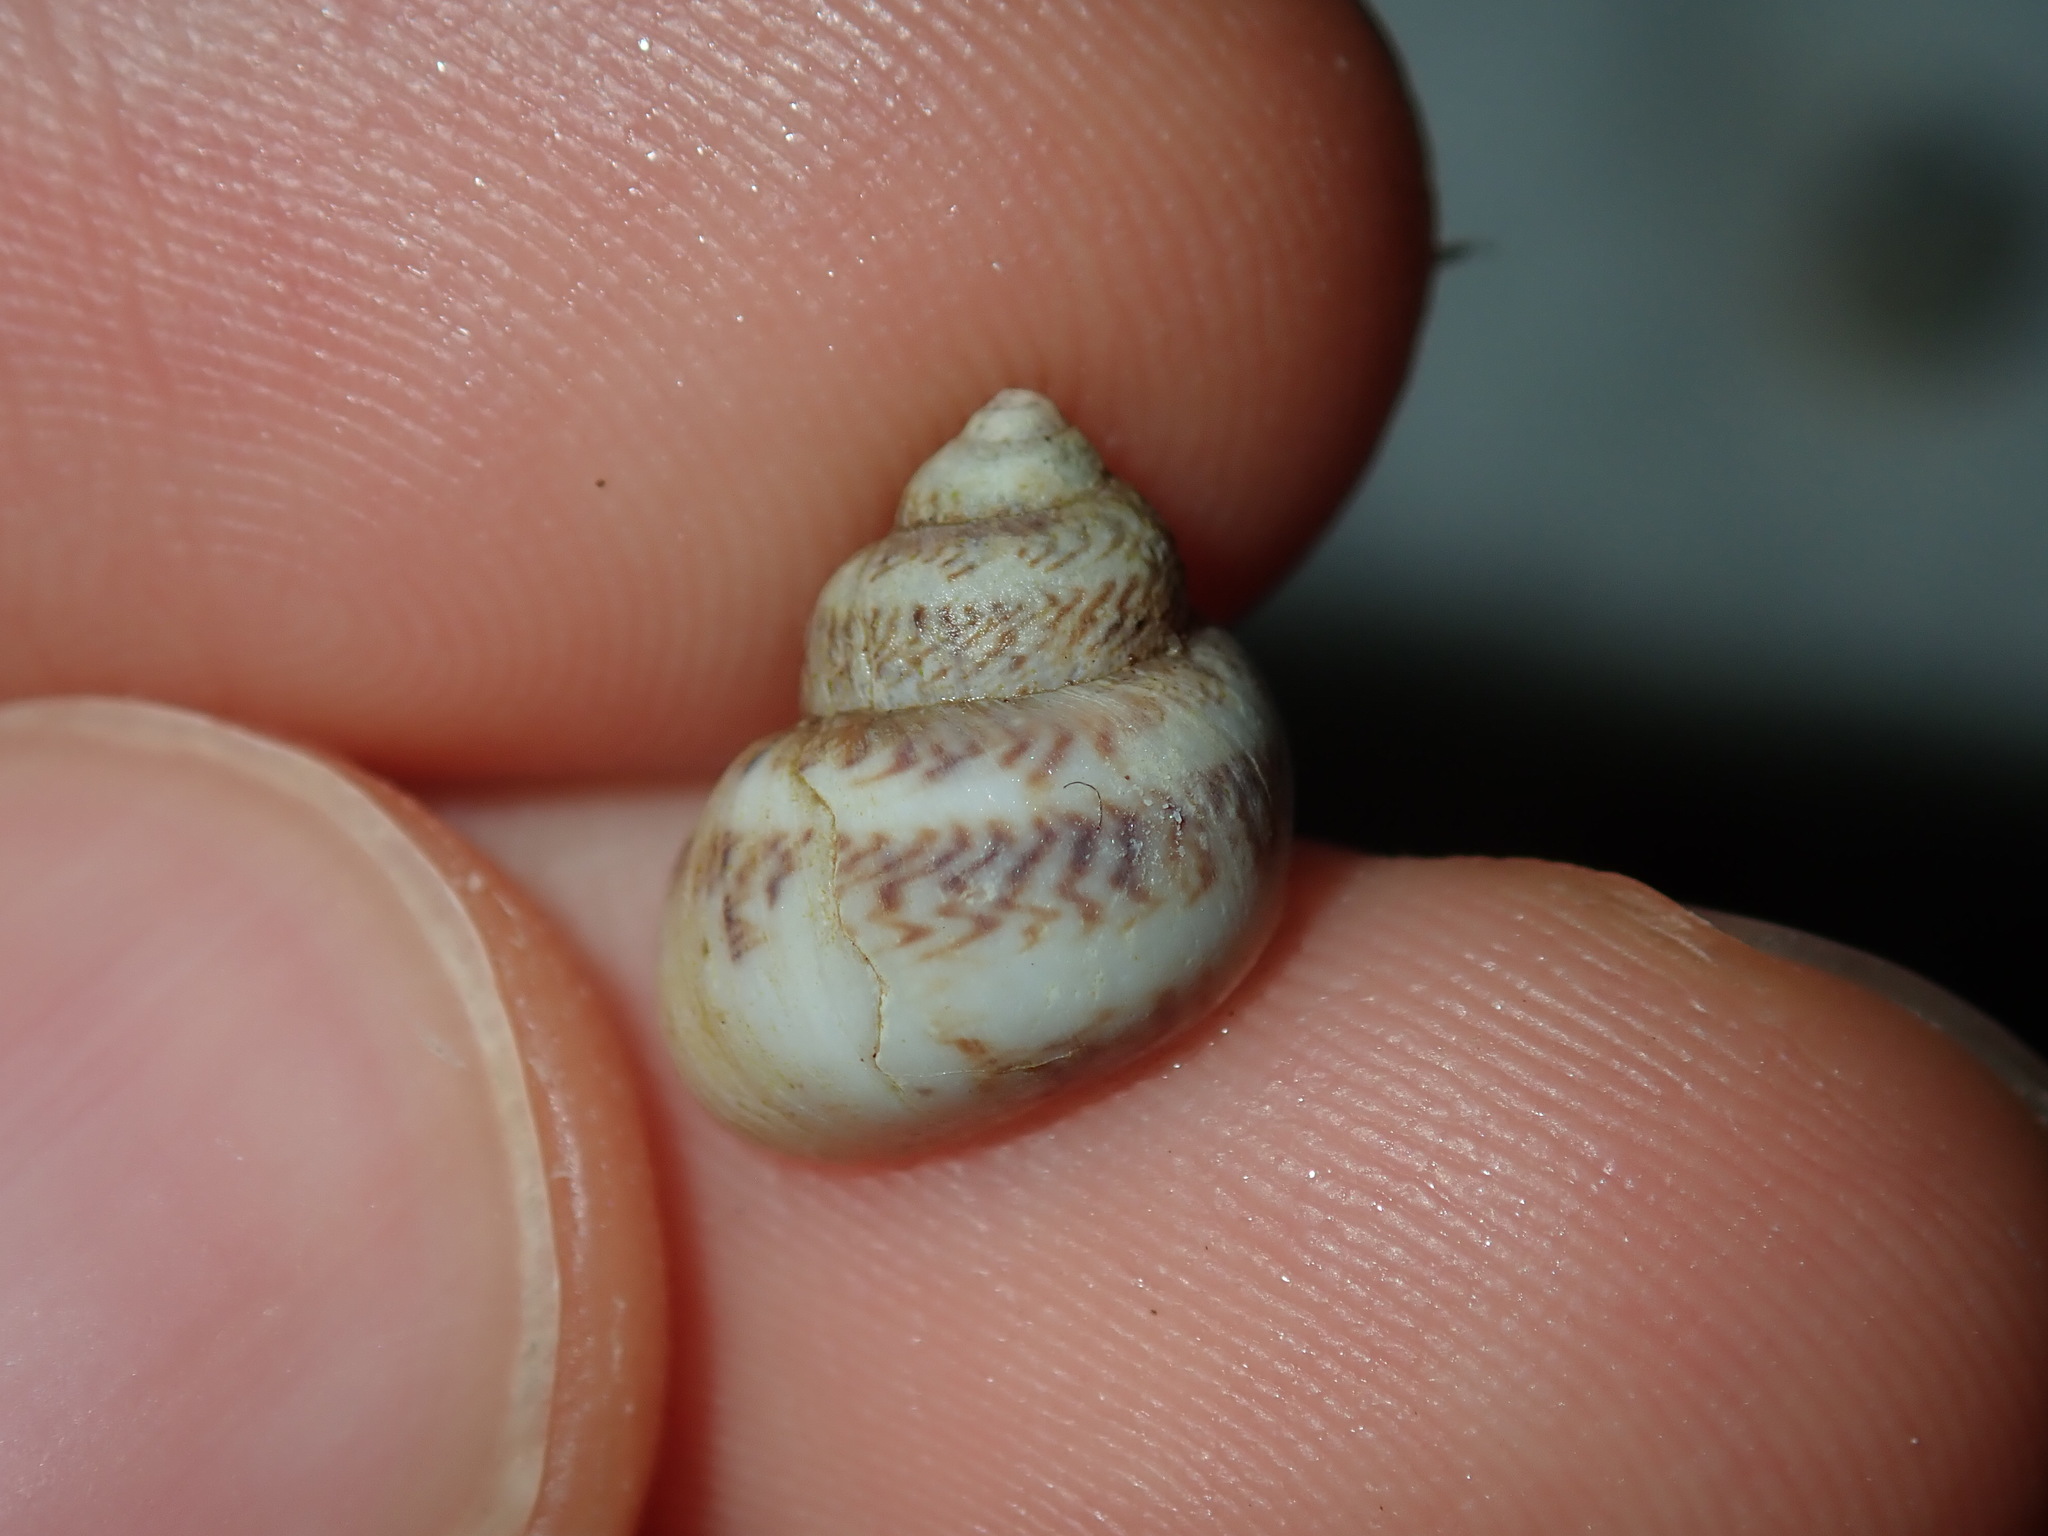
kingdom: Animalia
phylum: Mollusca
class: Gastropoda
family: Amphibolidae
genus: Phallomedusa
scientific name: Phallomedusa solida
